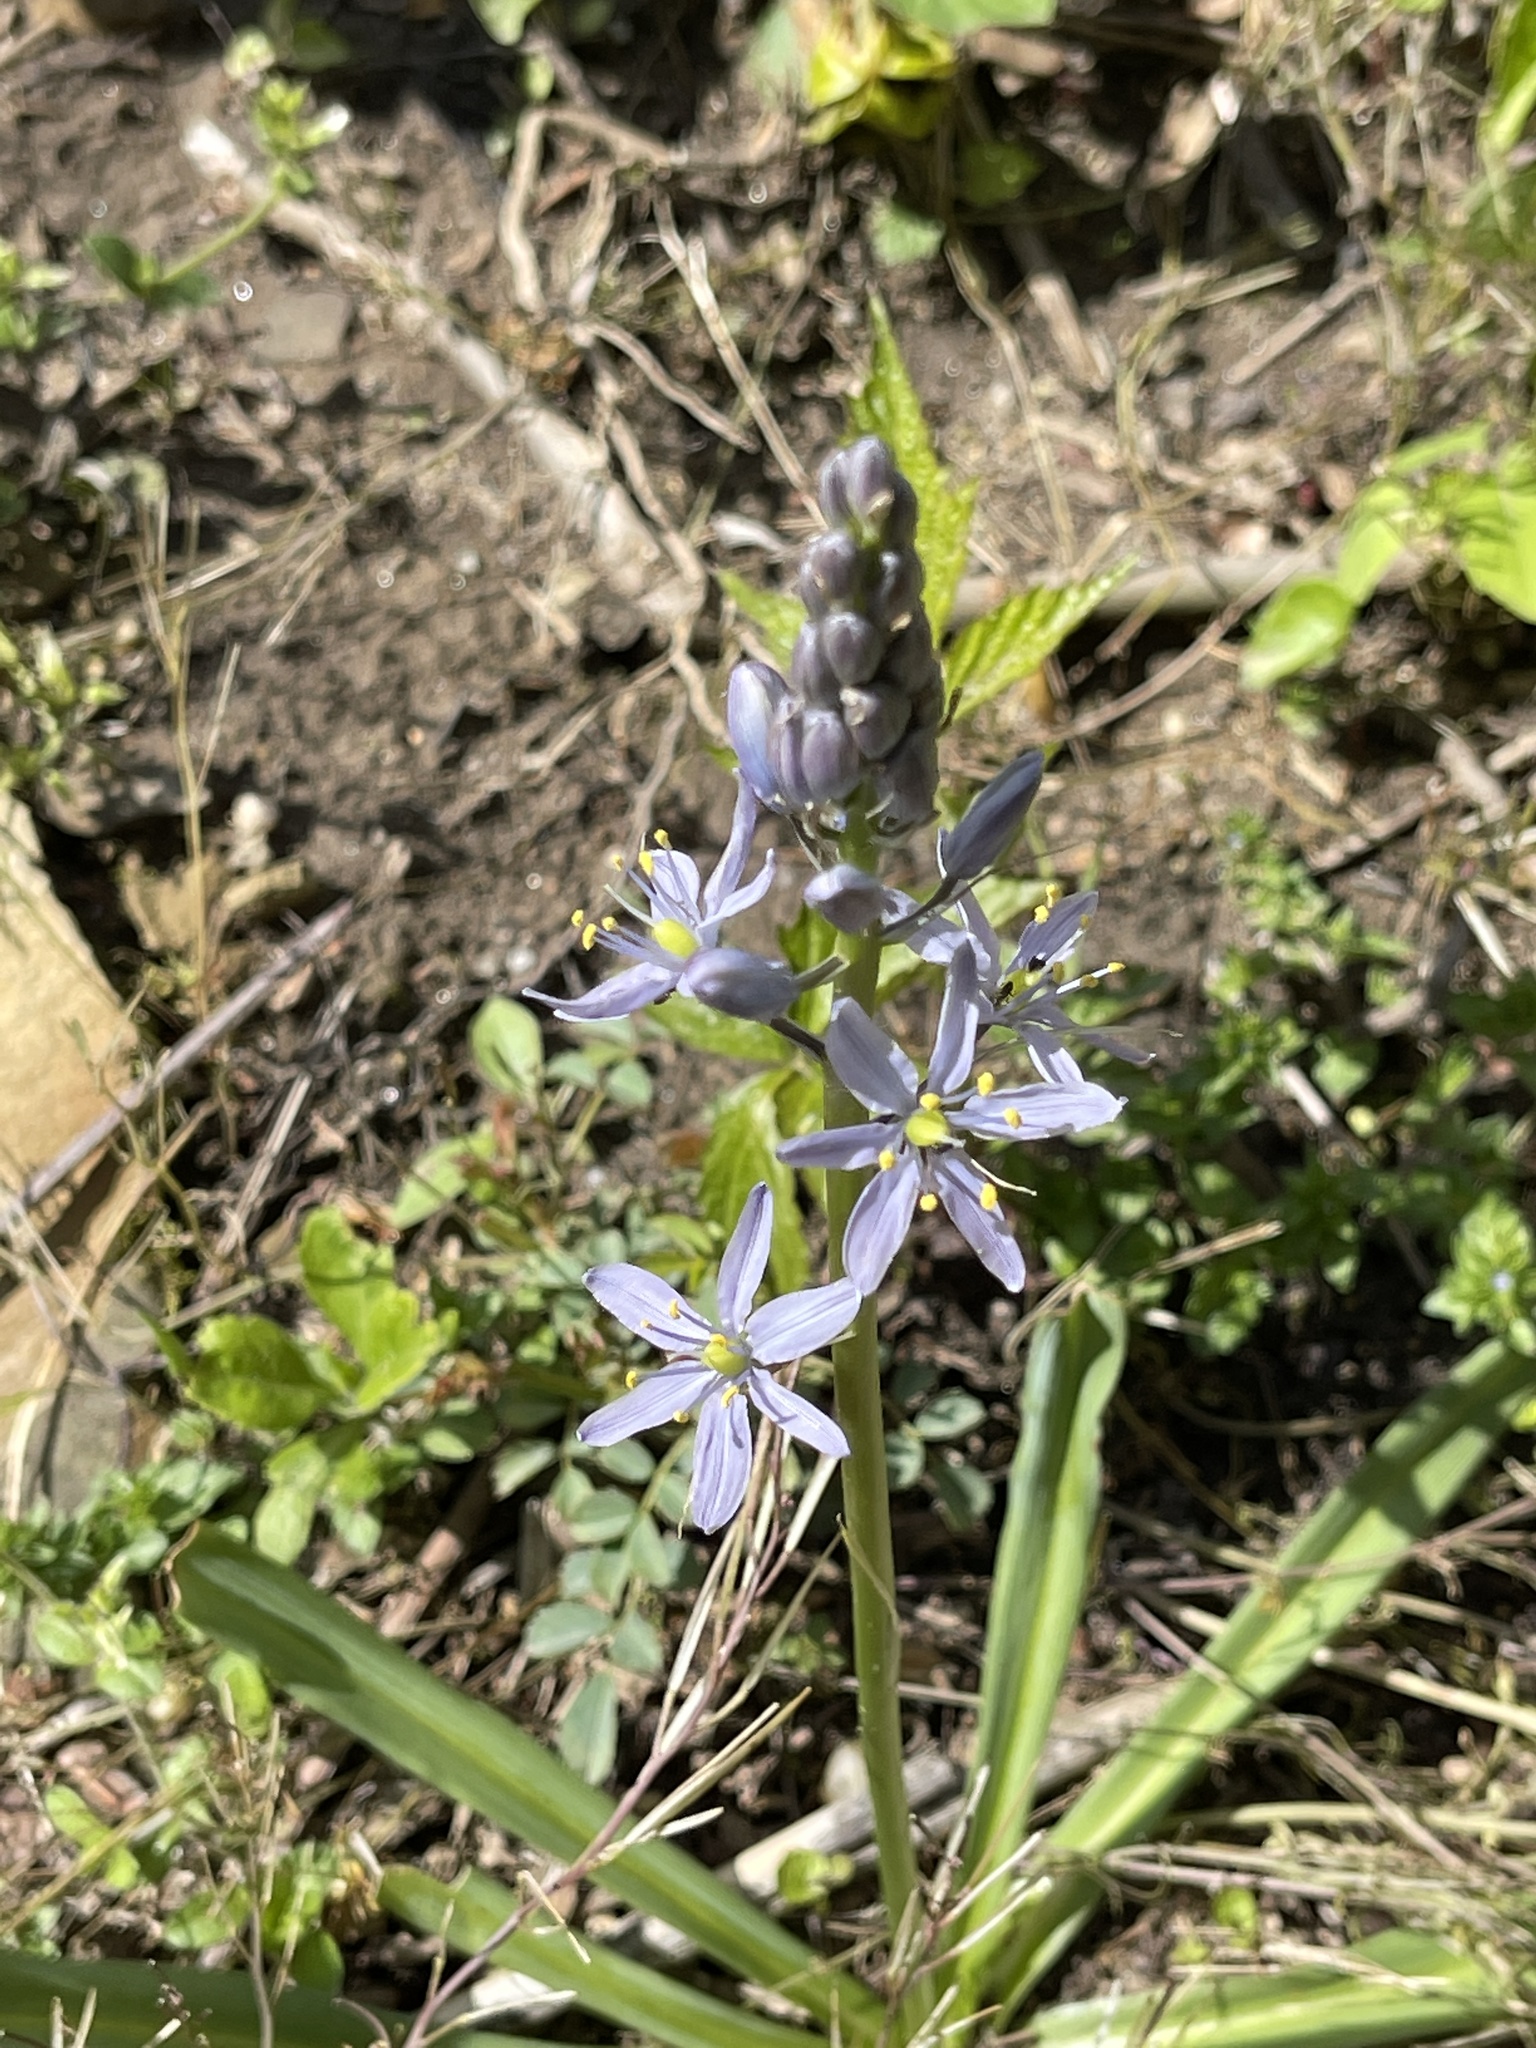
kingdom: Plantae
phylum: Tracheophyta
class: Liliopsida
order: Asparagales
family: Asparagaceae
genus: Camassia
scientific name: Camassia scilloides
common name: Wild hyacinth
